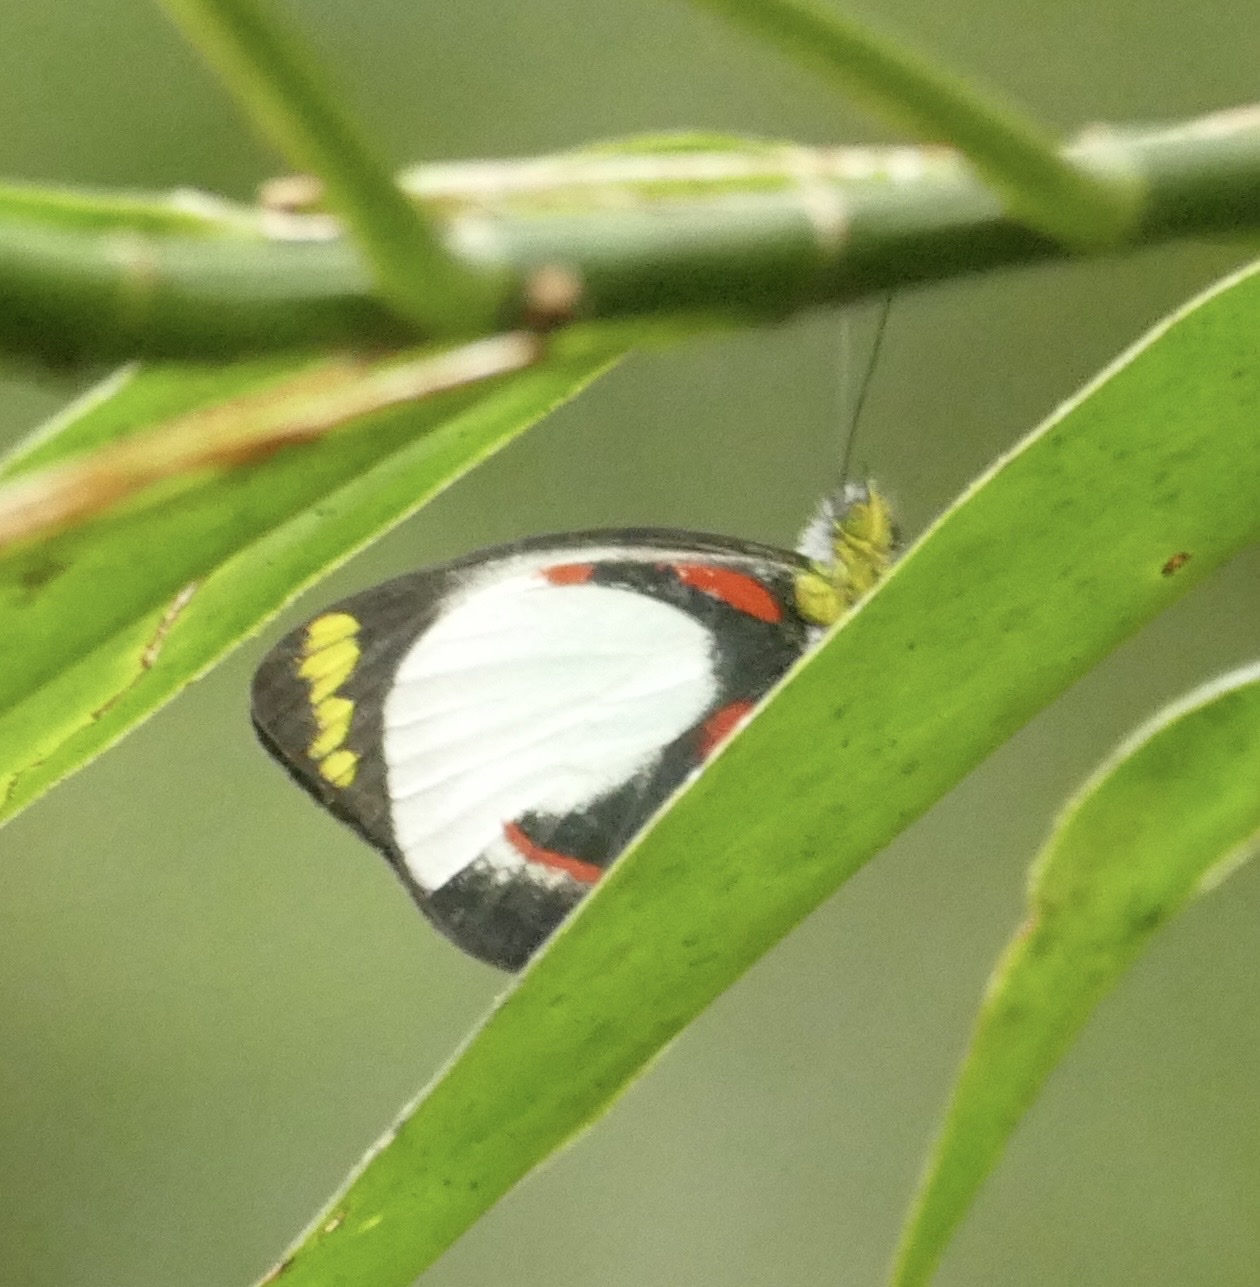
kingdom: Animalia
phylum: Arthropoda
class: Insecta
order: Lepidoptera
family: Pieridae
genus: Delias
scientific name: Delias kummeri
